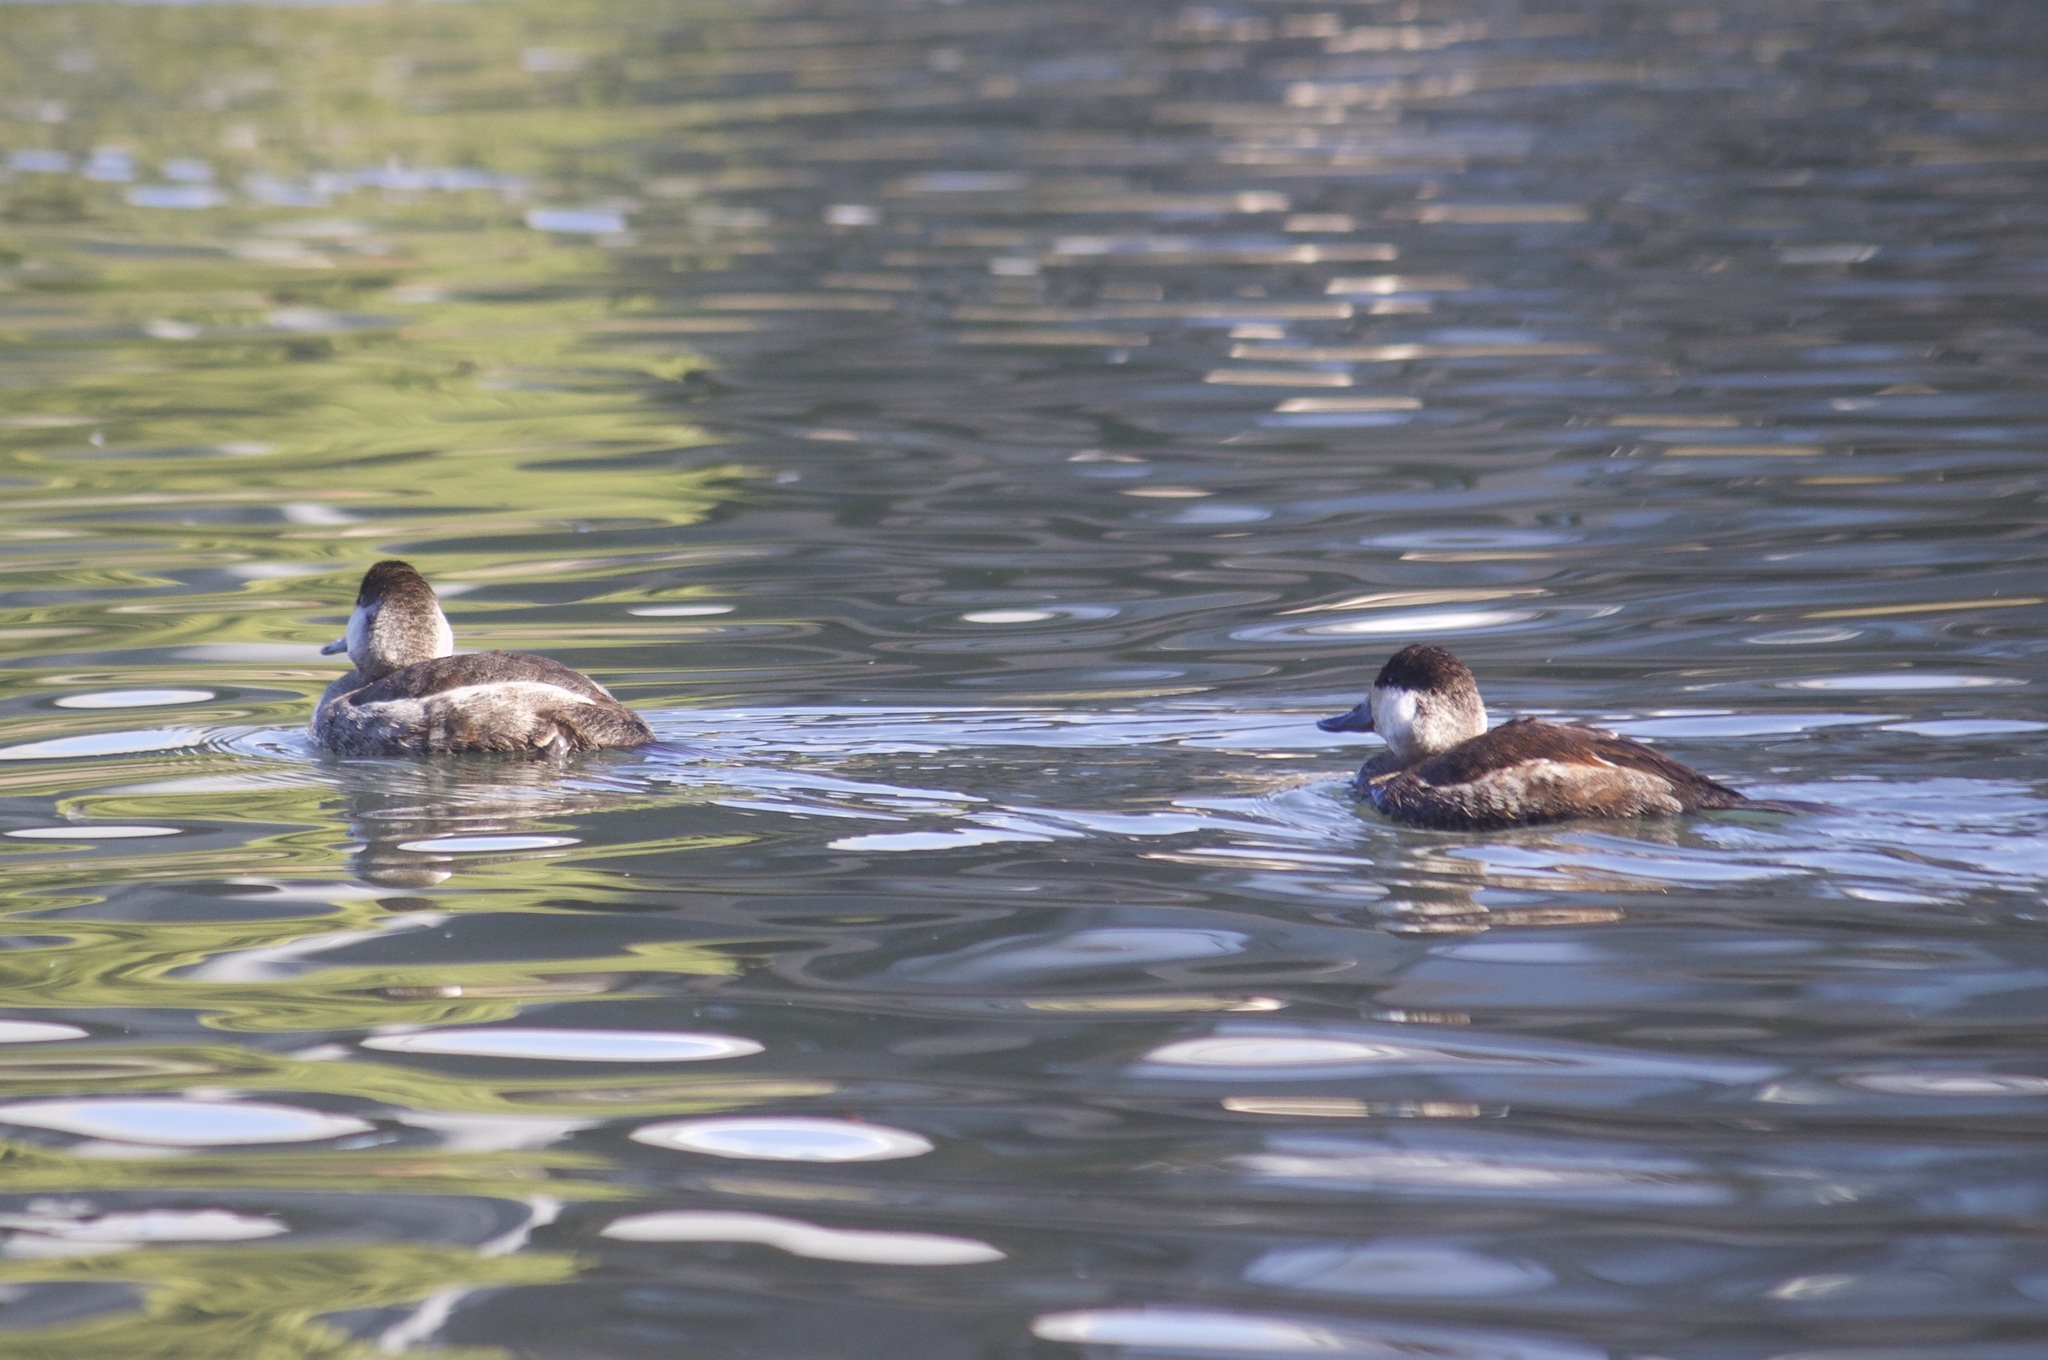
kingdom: Animalia
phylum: Chordata
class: Aves
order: Anseriformes
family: Anatidae
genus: Oxyura
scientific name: Oxyura jamaicensis
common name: Ruddy duck
